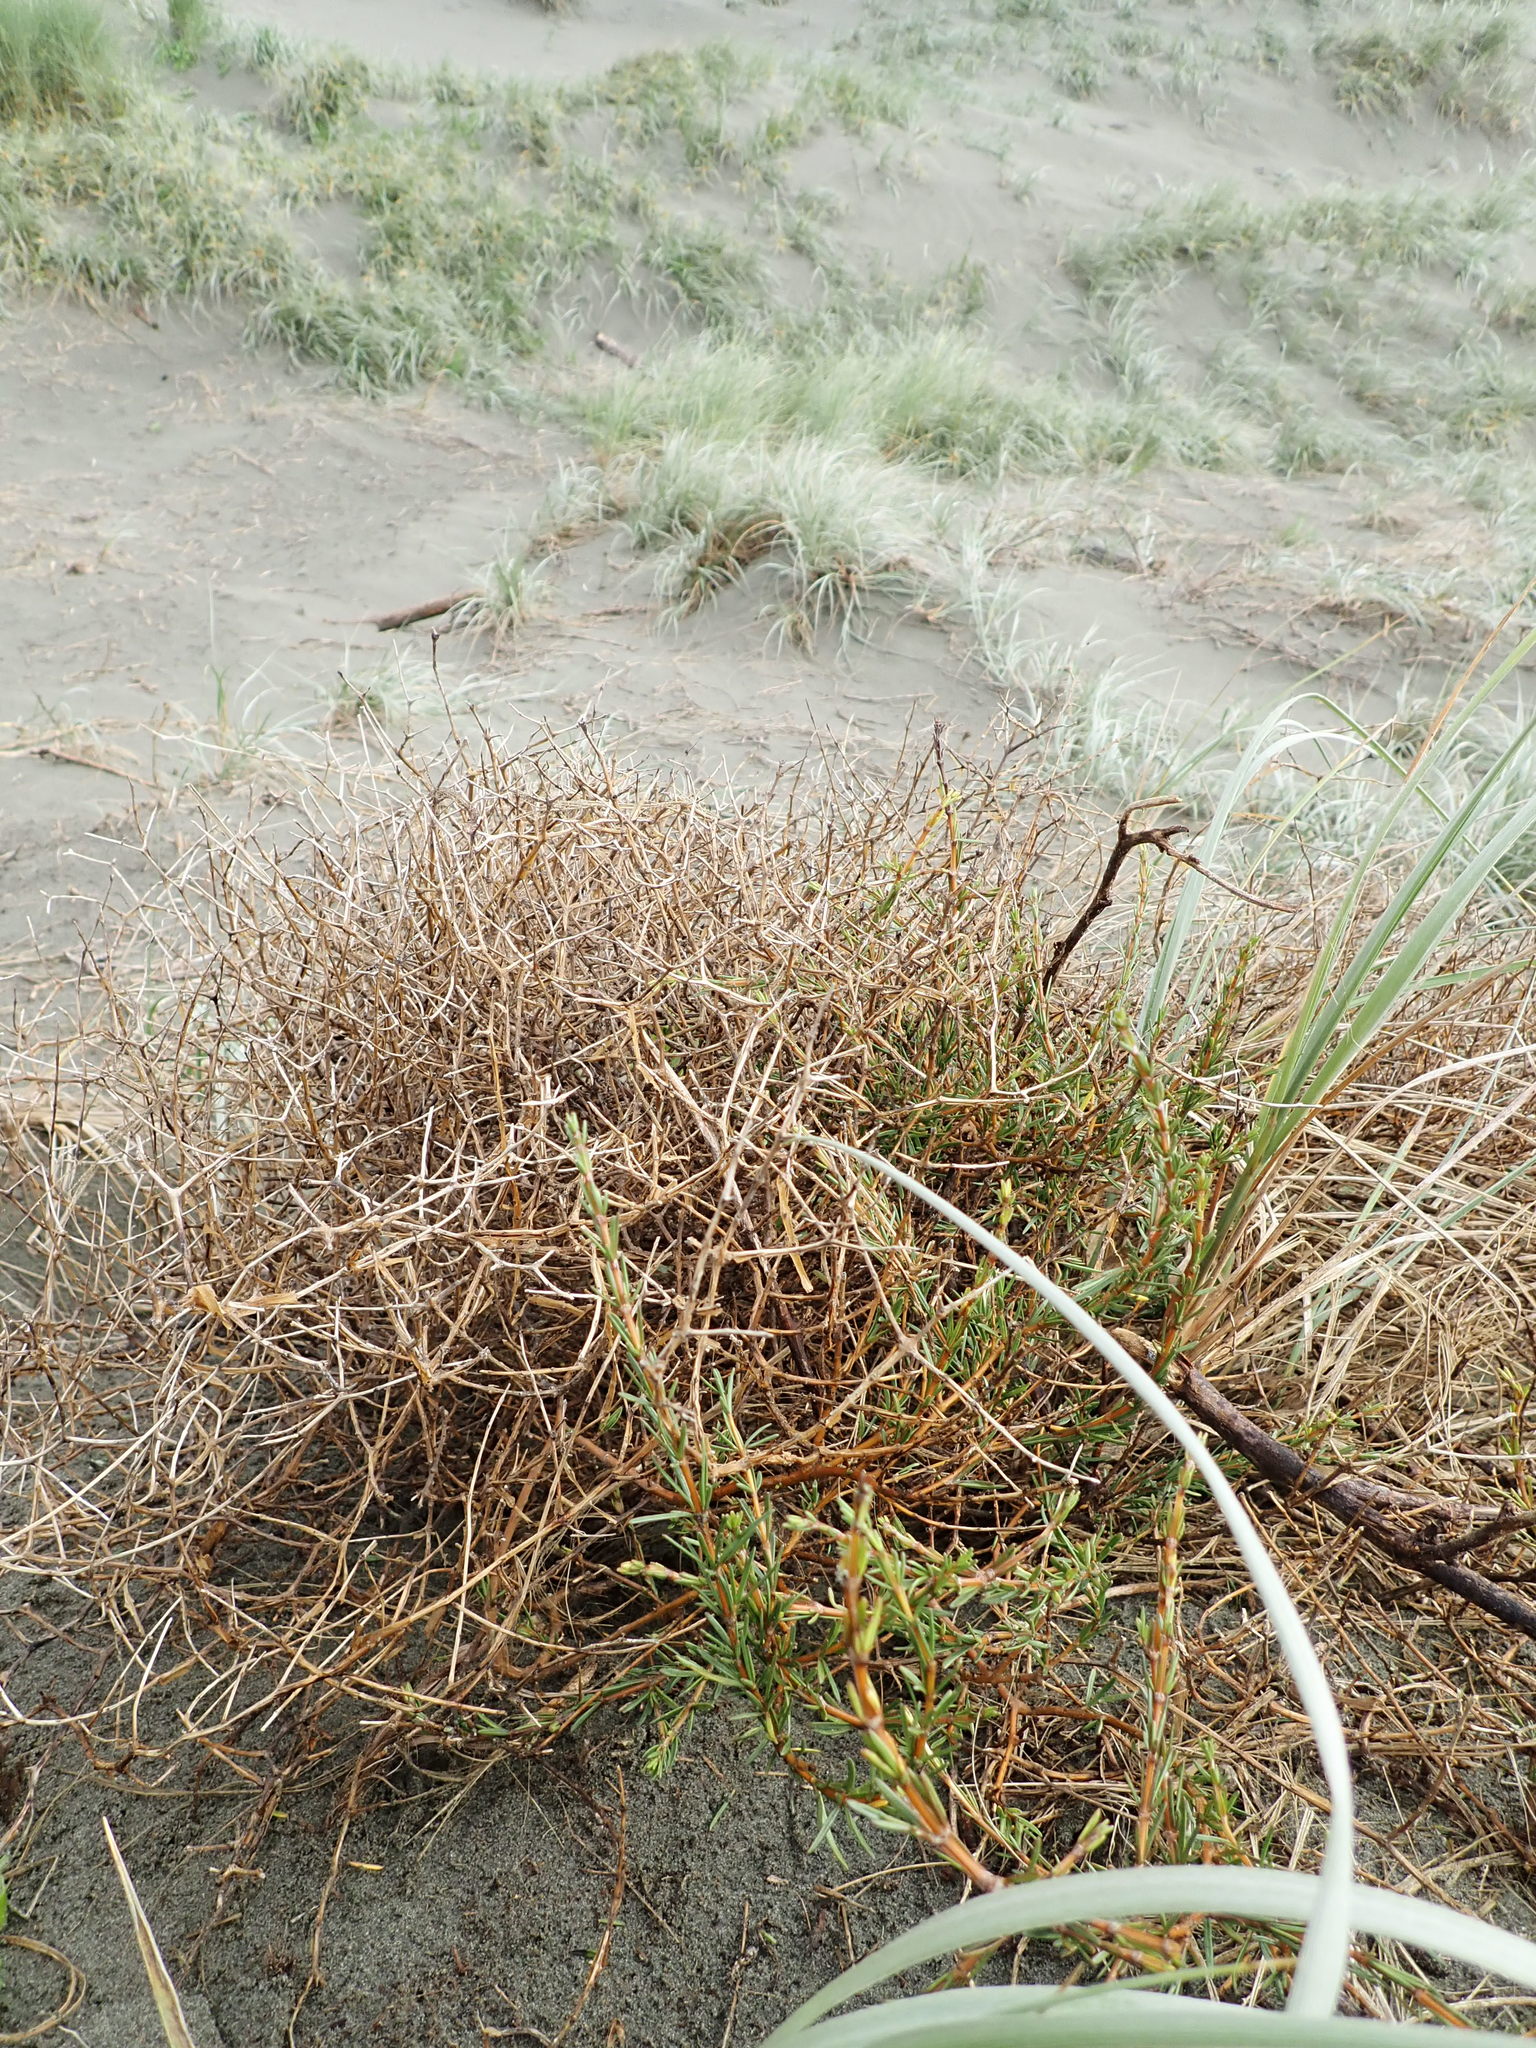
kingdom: Plantae
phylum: Tracheophyta
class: Magnoliopsida
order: Gentianales
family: Rubiaceae
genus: Coprosma
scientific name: Coprosma acerosa
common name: Sand coprosma
